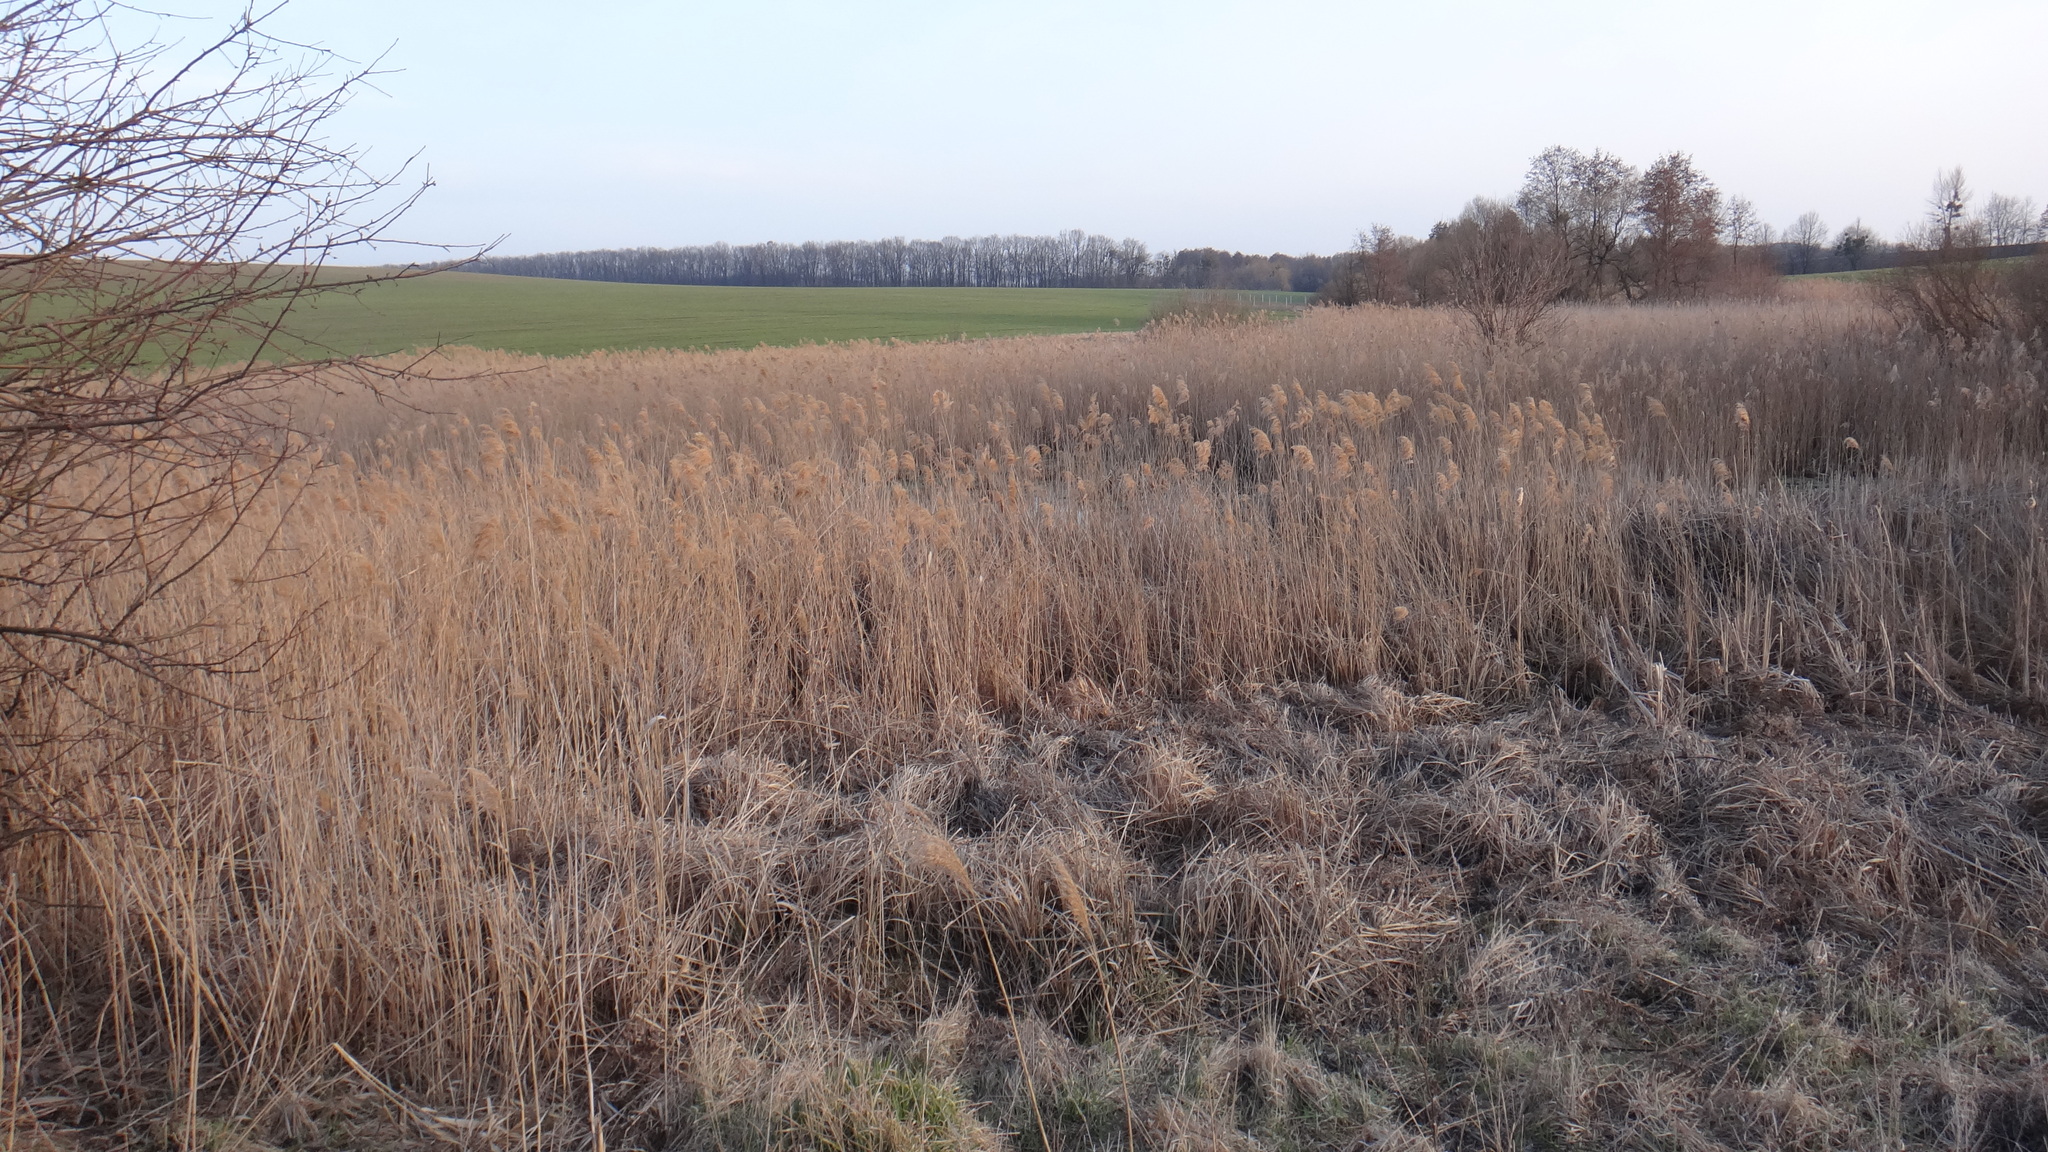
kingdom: Plantae
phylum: Tracheophyta
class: Liliopsida
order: Poales
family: Poaceae
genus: Phragmites
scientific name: Phragmites australis
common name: Common reed
